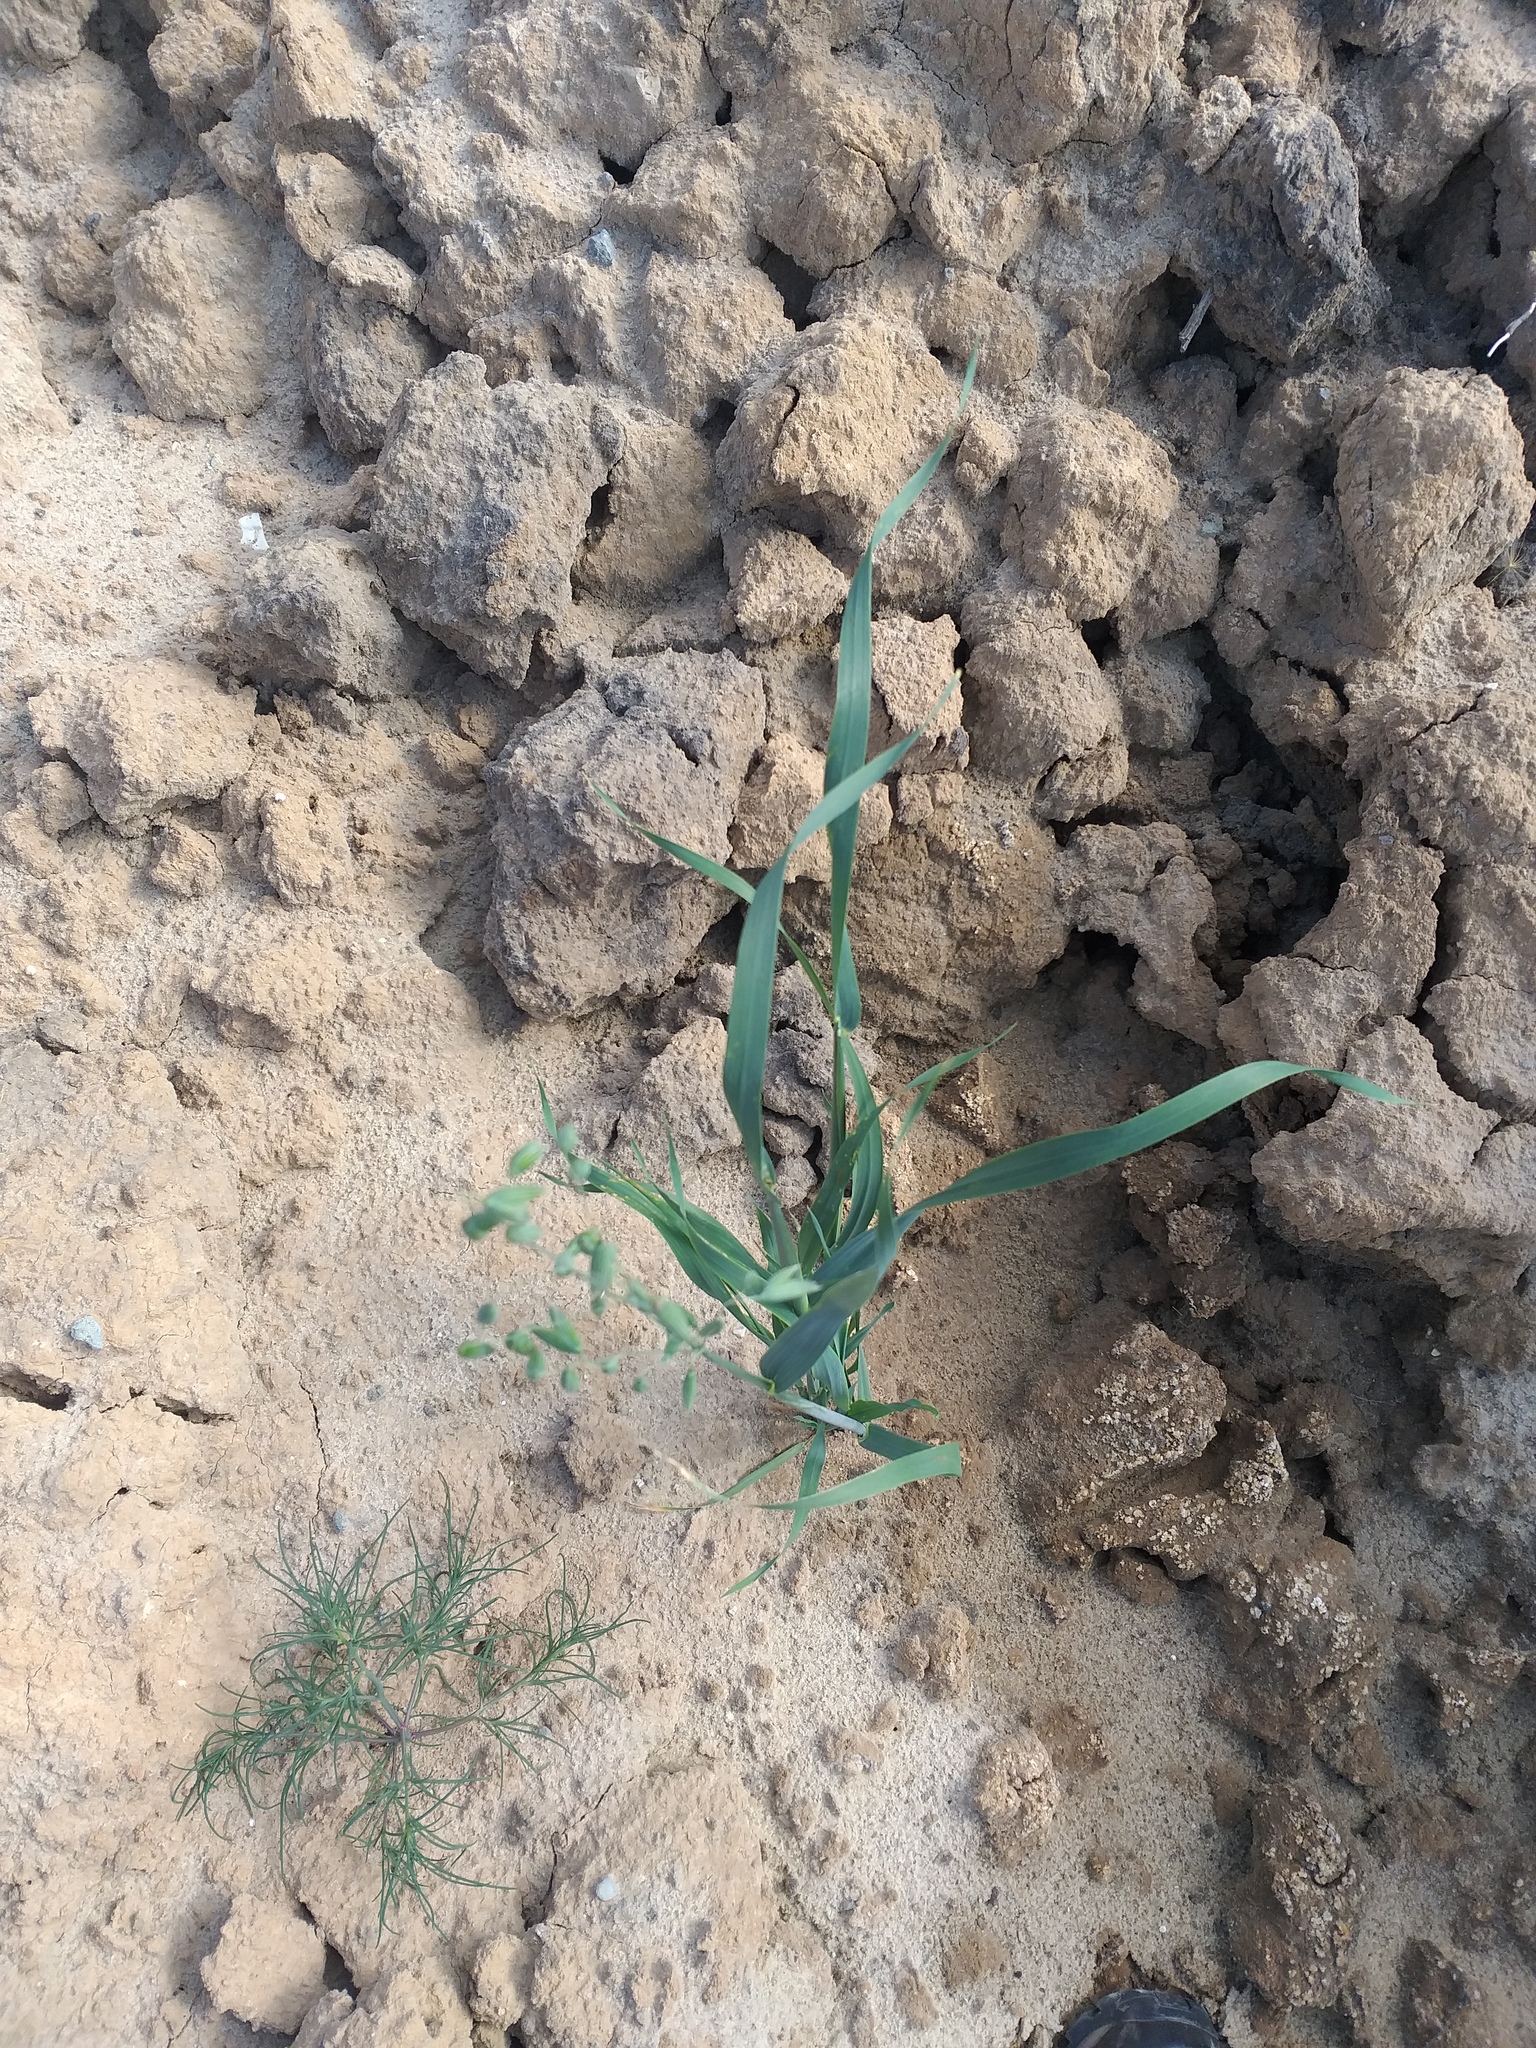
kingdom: Plantae
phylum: Tracheophyta
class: Liliopsida
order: Poales
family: Poaceae
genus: Avena
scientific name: Avena sativa
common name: Oat
